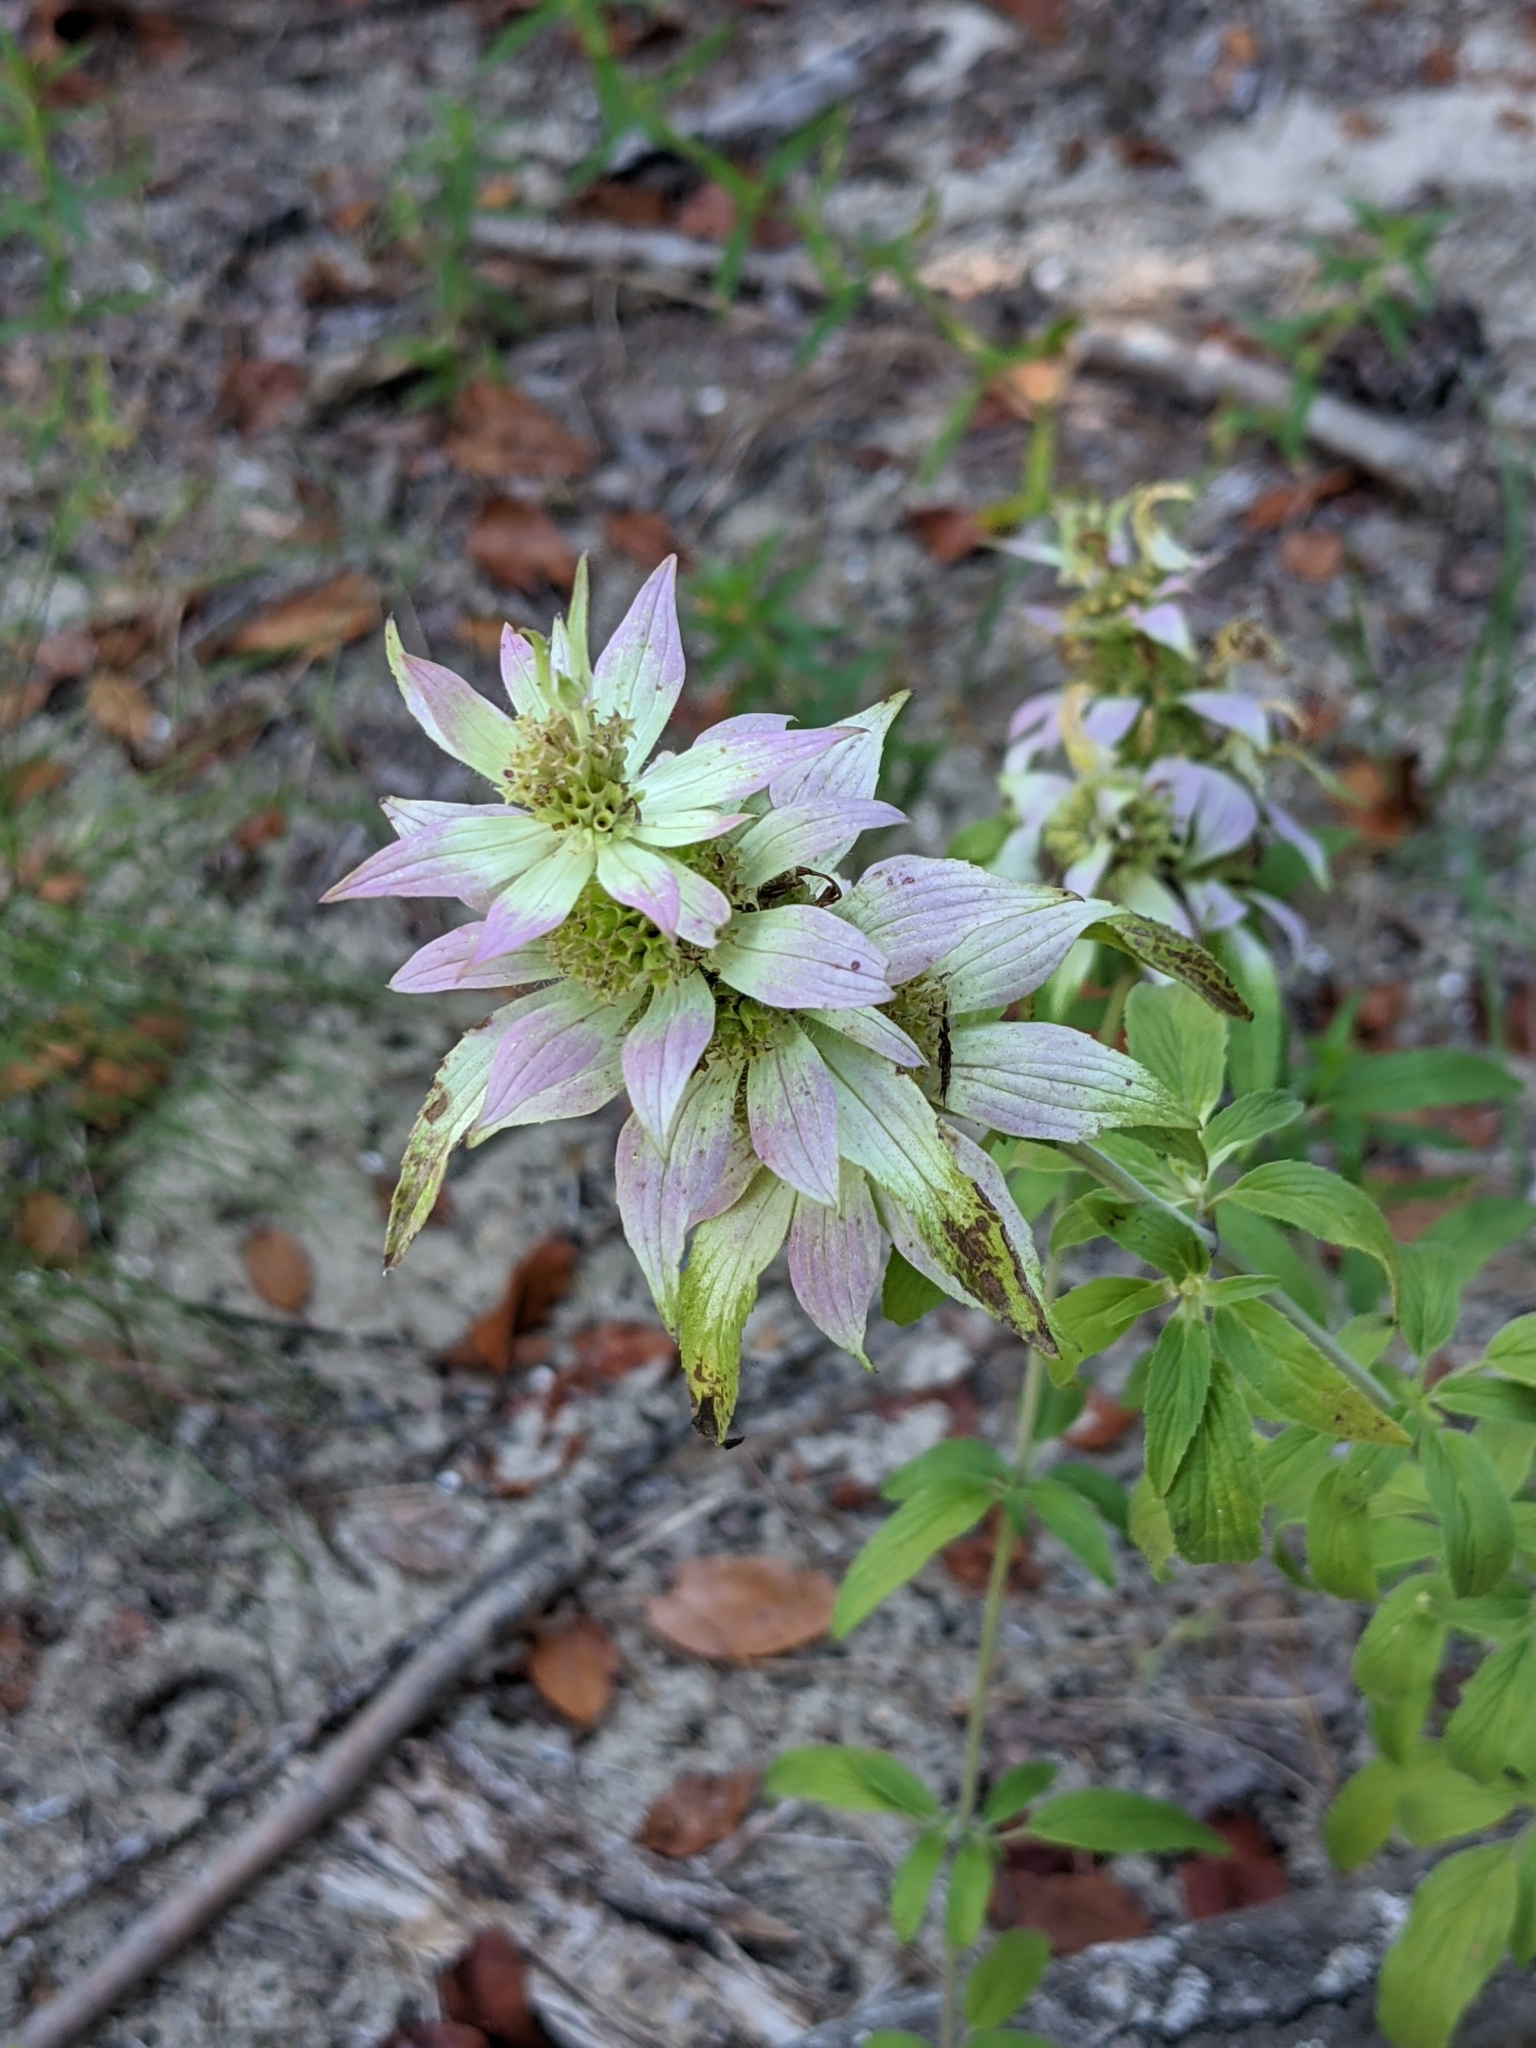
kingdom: Plantae
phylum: Tracheophyta
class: Magnoliopsida
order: Lamiales
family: Lamiaceae
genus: Monarda
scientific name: Monarda punctata
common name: Dotted monarda
